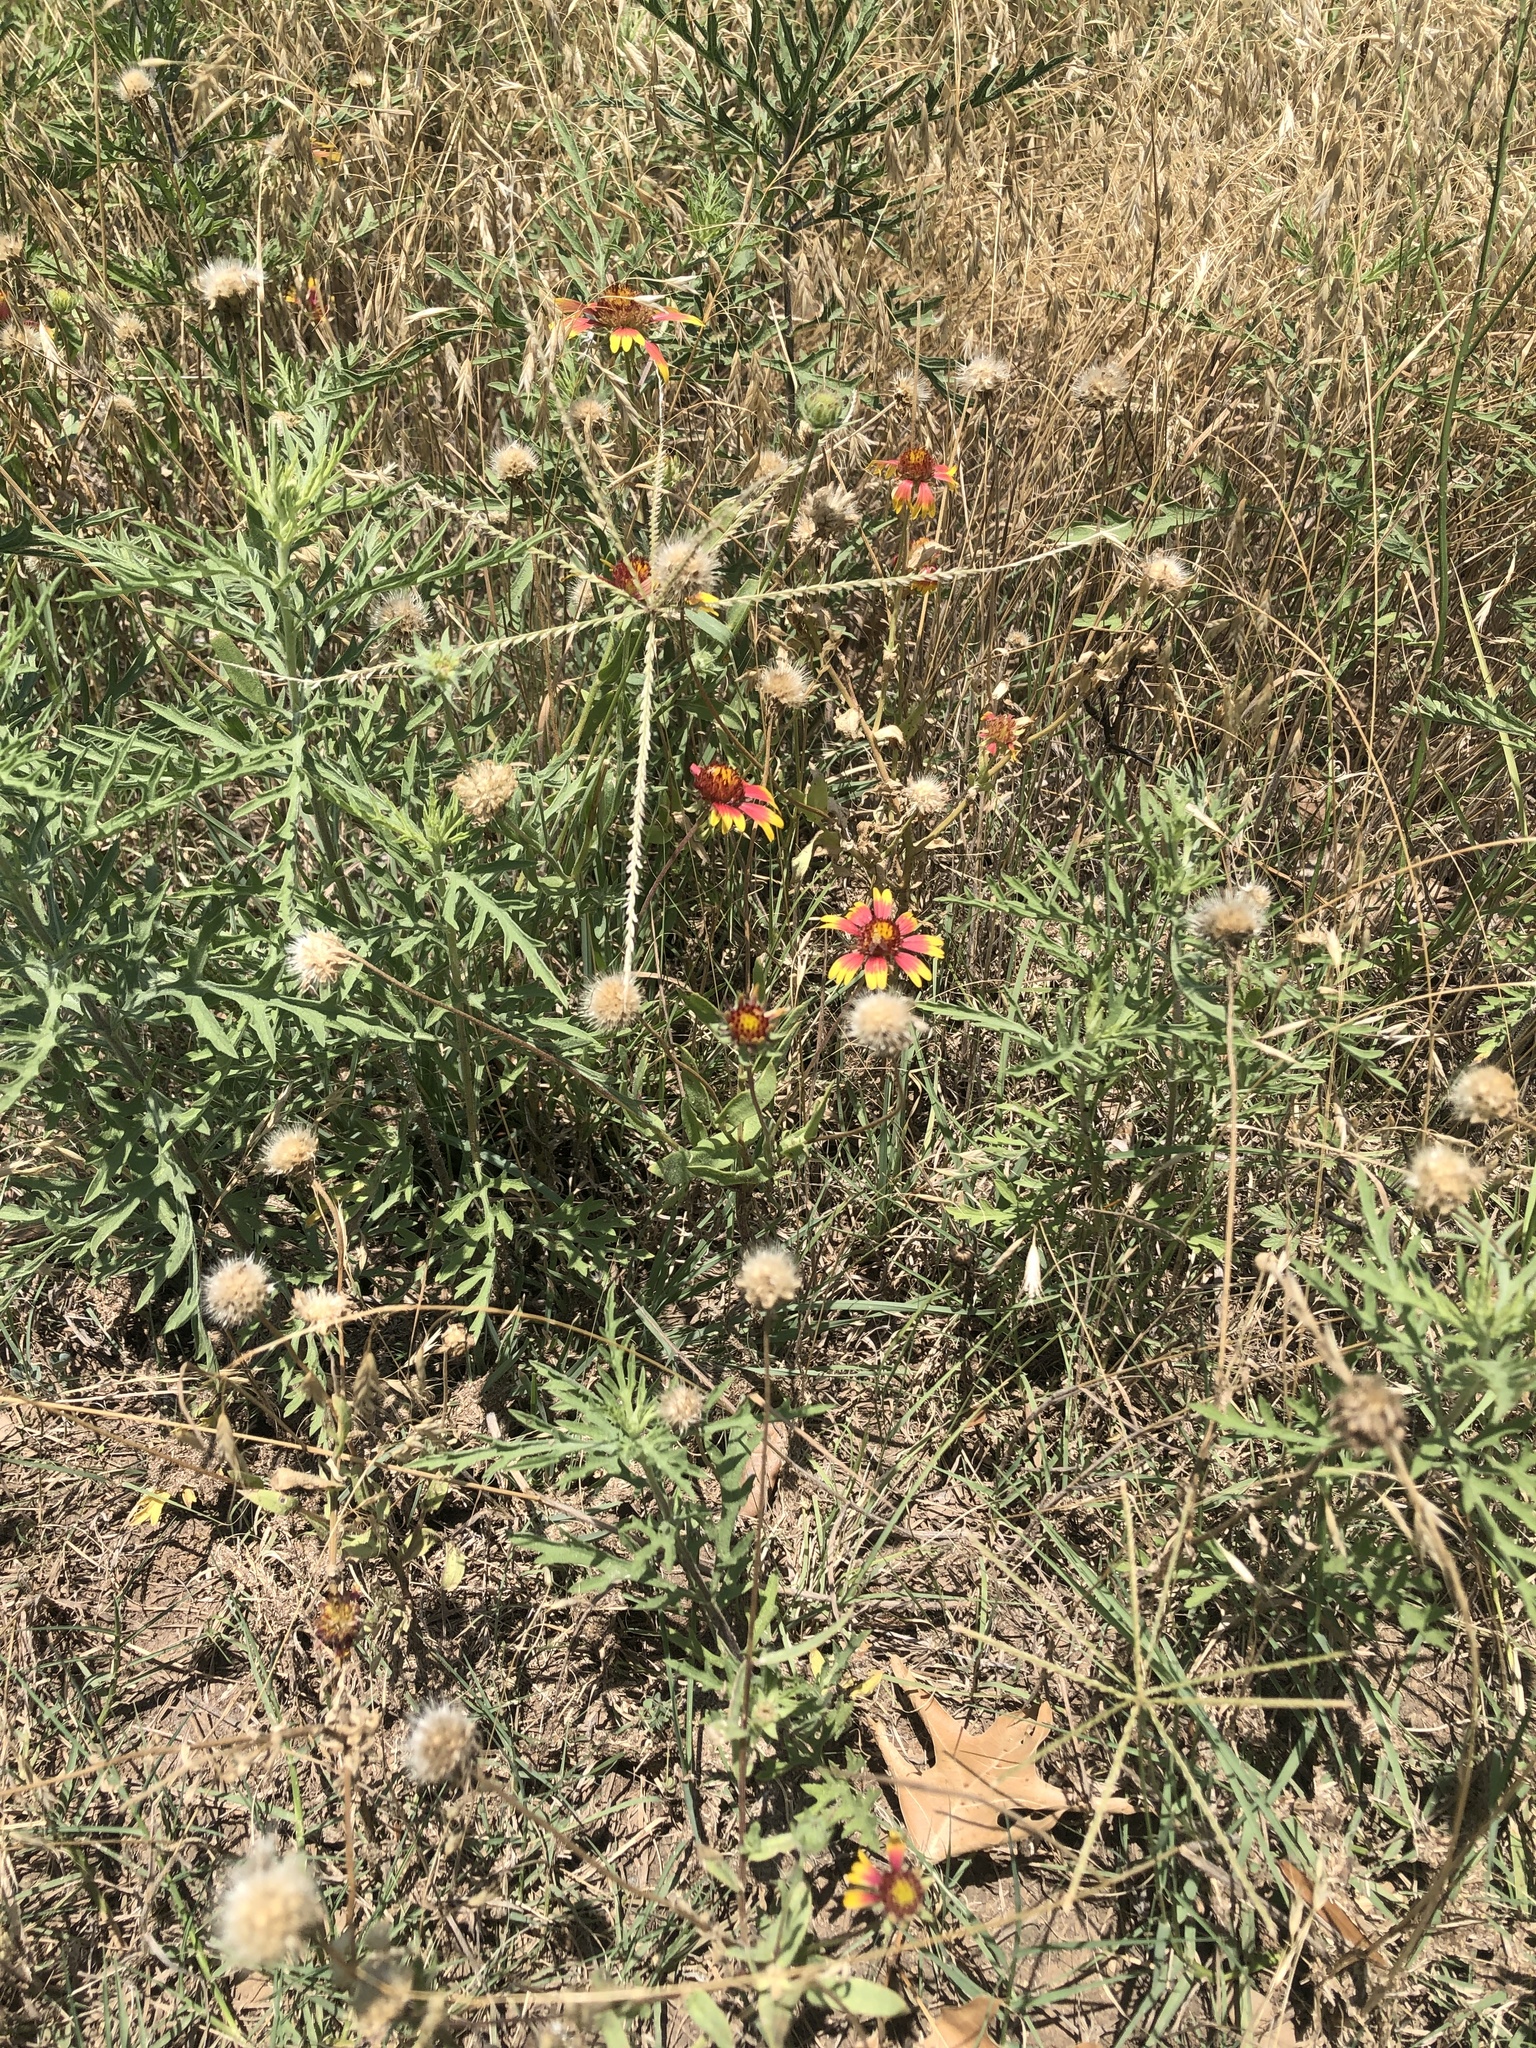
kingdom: Plantae
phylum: Tracheophyta
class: Magnoliopsida
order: Asterales
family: Asteraceae
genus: Gaillardia
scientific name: Gaillardia pulchella
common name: Firewheel
